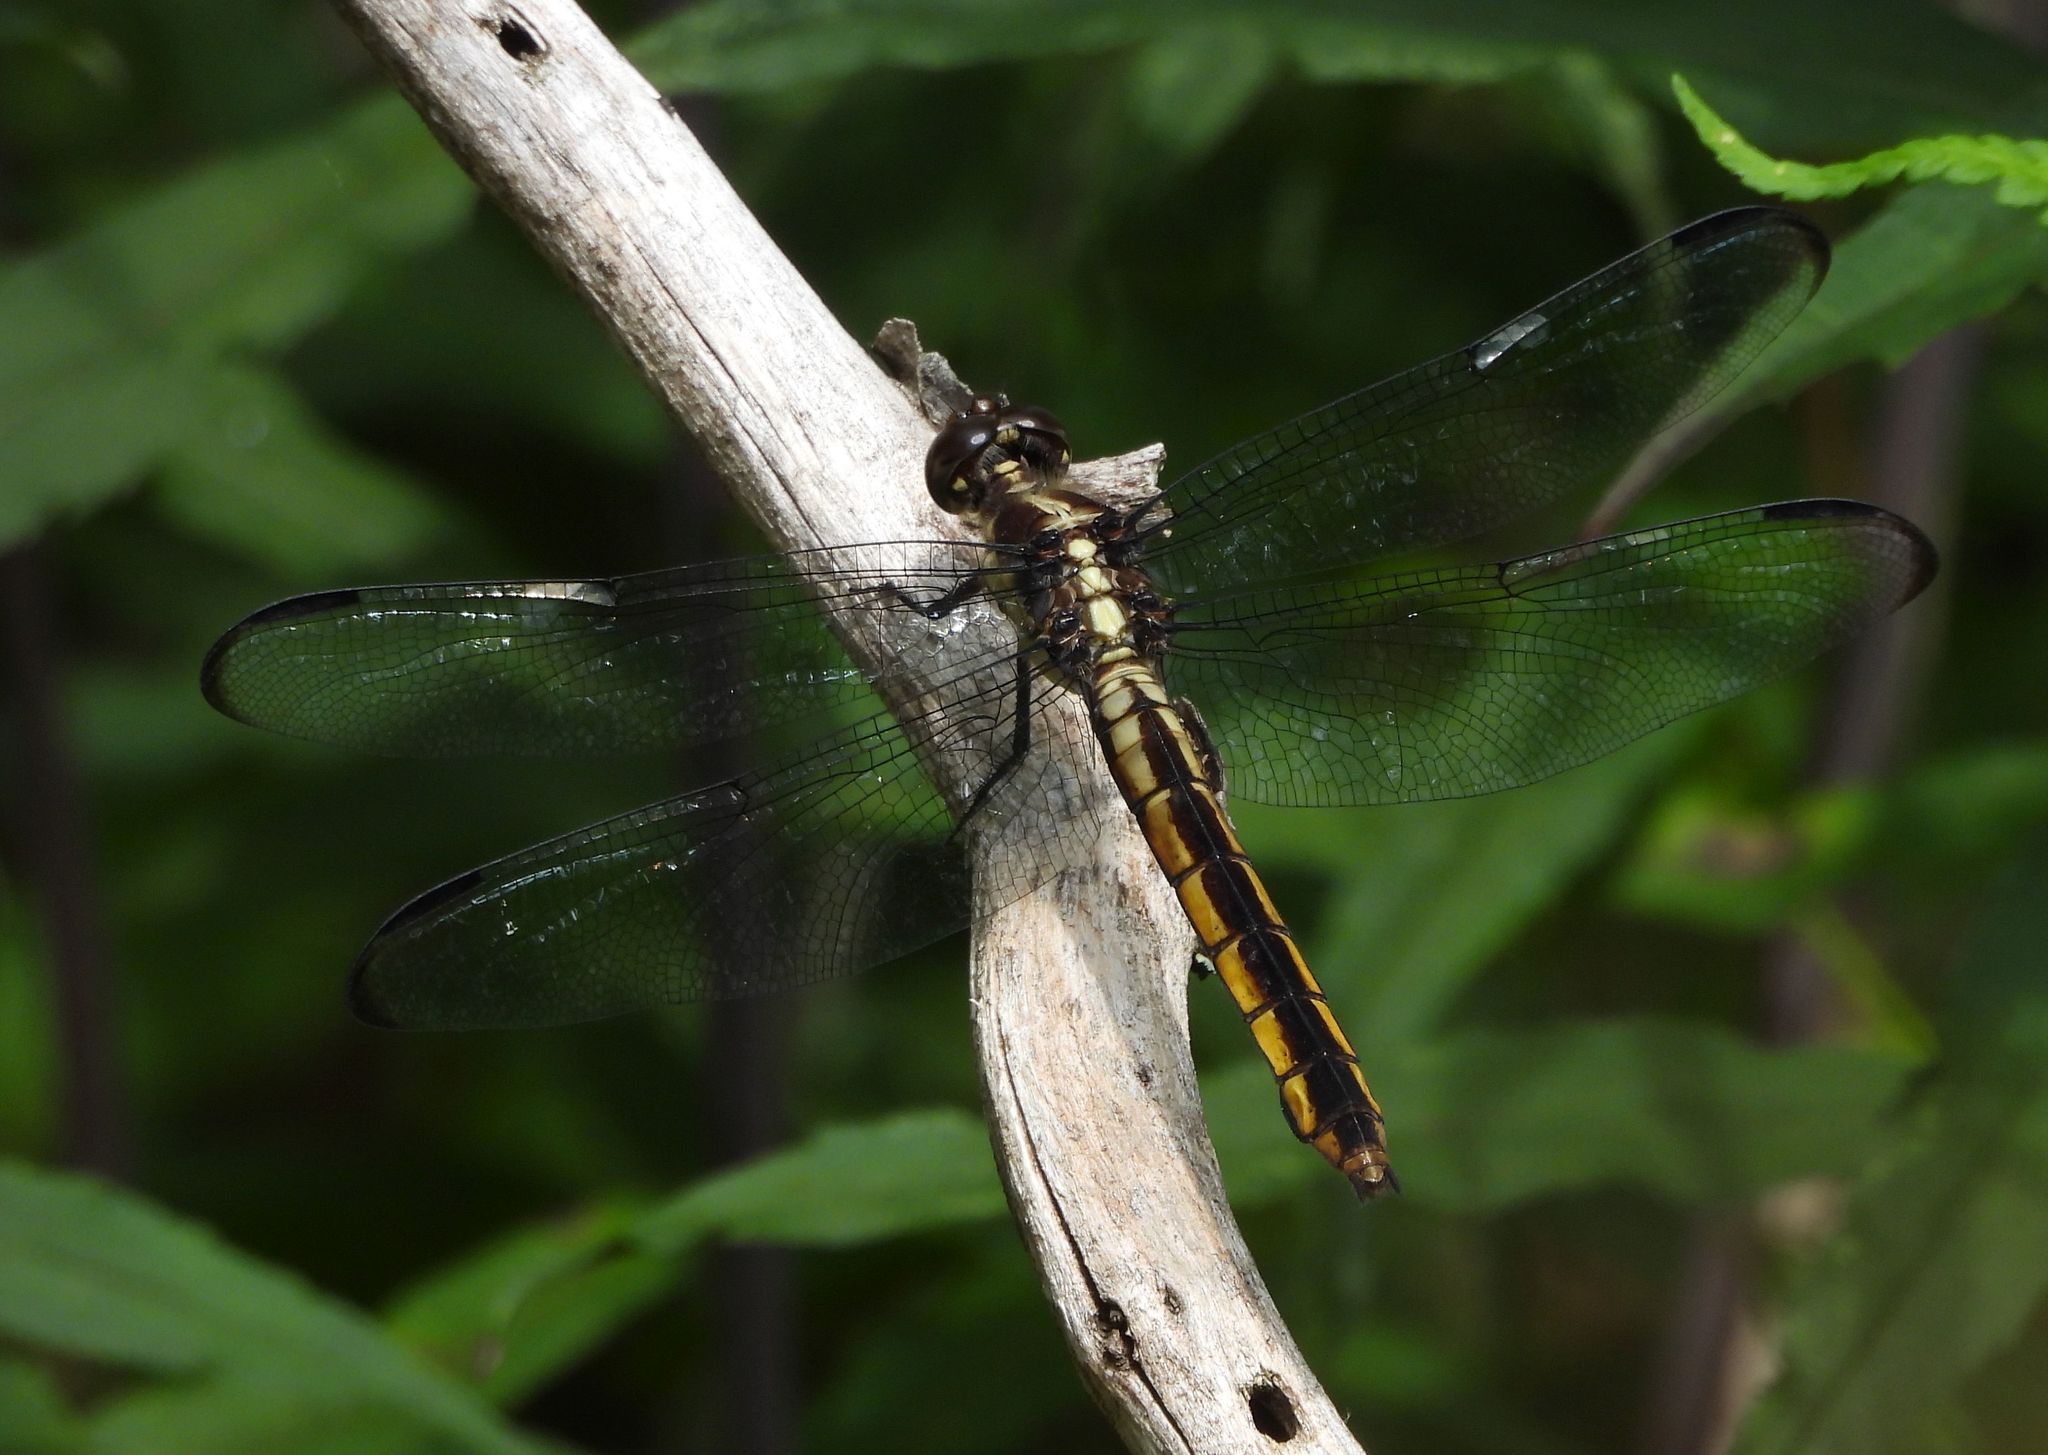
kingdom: Animalia
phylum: Arthropoda
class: Insecta
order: Odonata
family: Libellulidae
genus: Libellula
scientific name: Libellula incesta
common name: Slaty skimmer
